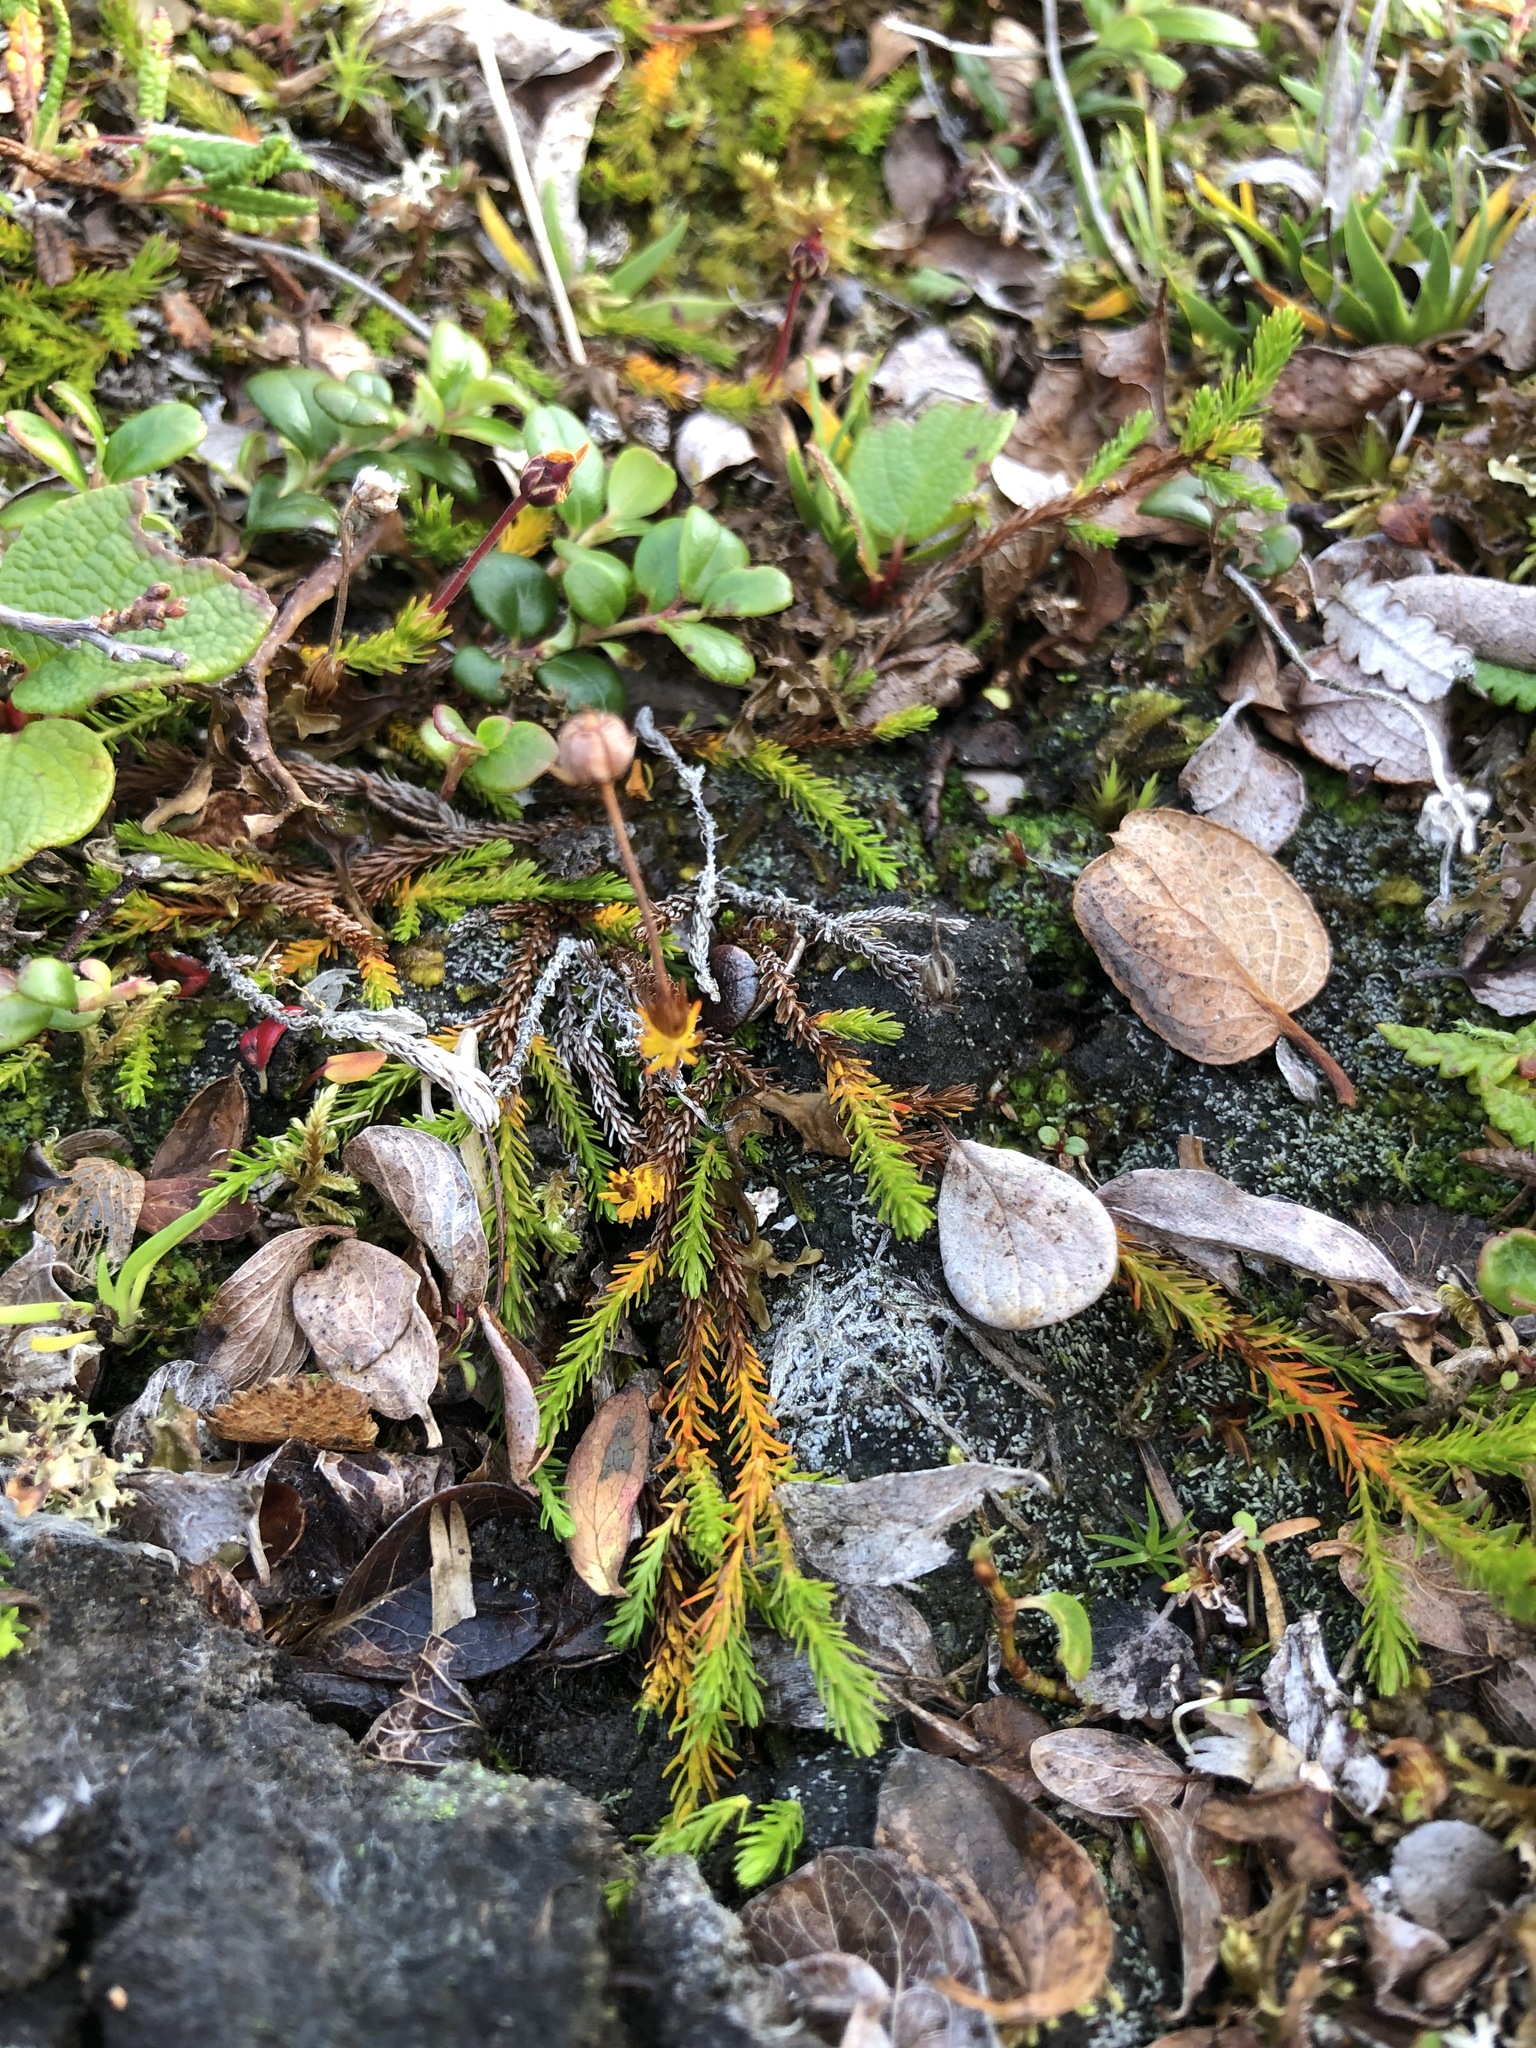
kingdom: Plantae
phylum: Tracheophyta
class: Magnoliopsida
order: Ericales
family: Ericaceae
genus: Harrimanella
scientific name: Harrimanella hypnoides
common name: Moss bell heather
